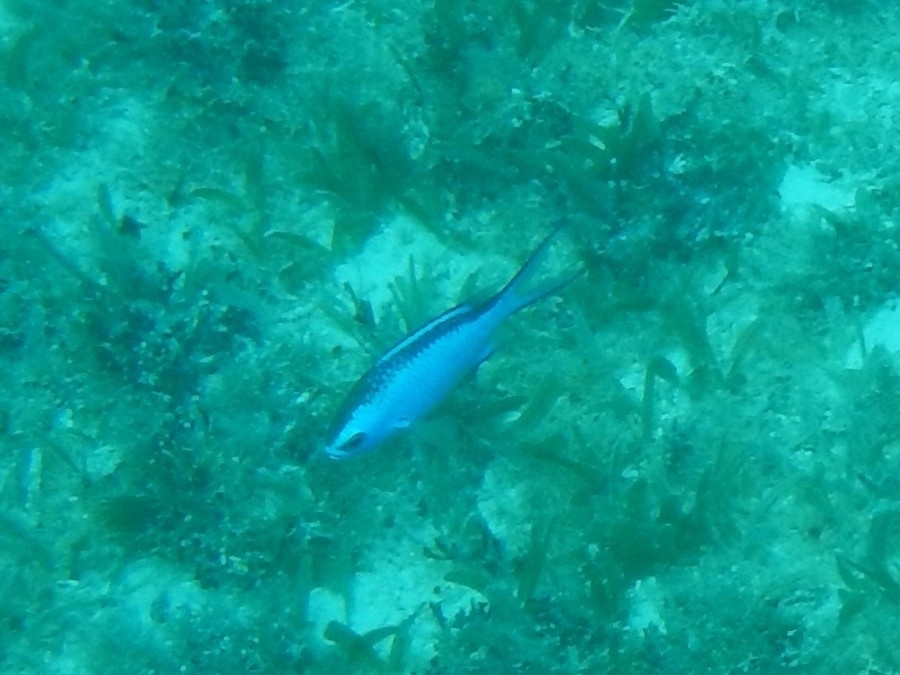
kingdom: Animalia
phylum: Chordata
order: Perciformes
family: Pomacentridae
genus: Chromis
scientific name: Chromis cyanea
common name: Blue chromis
